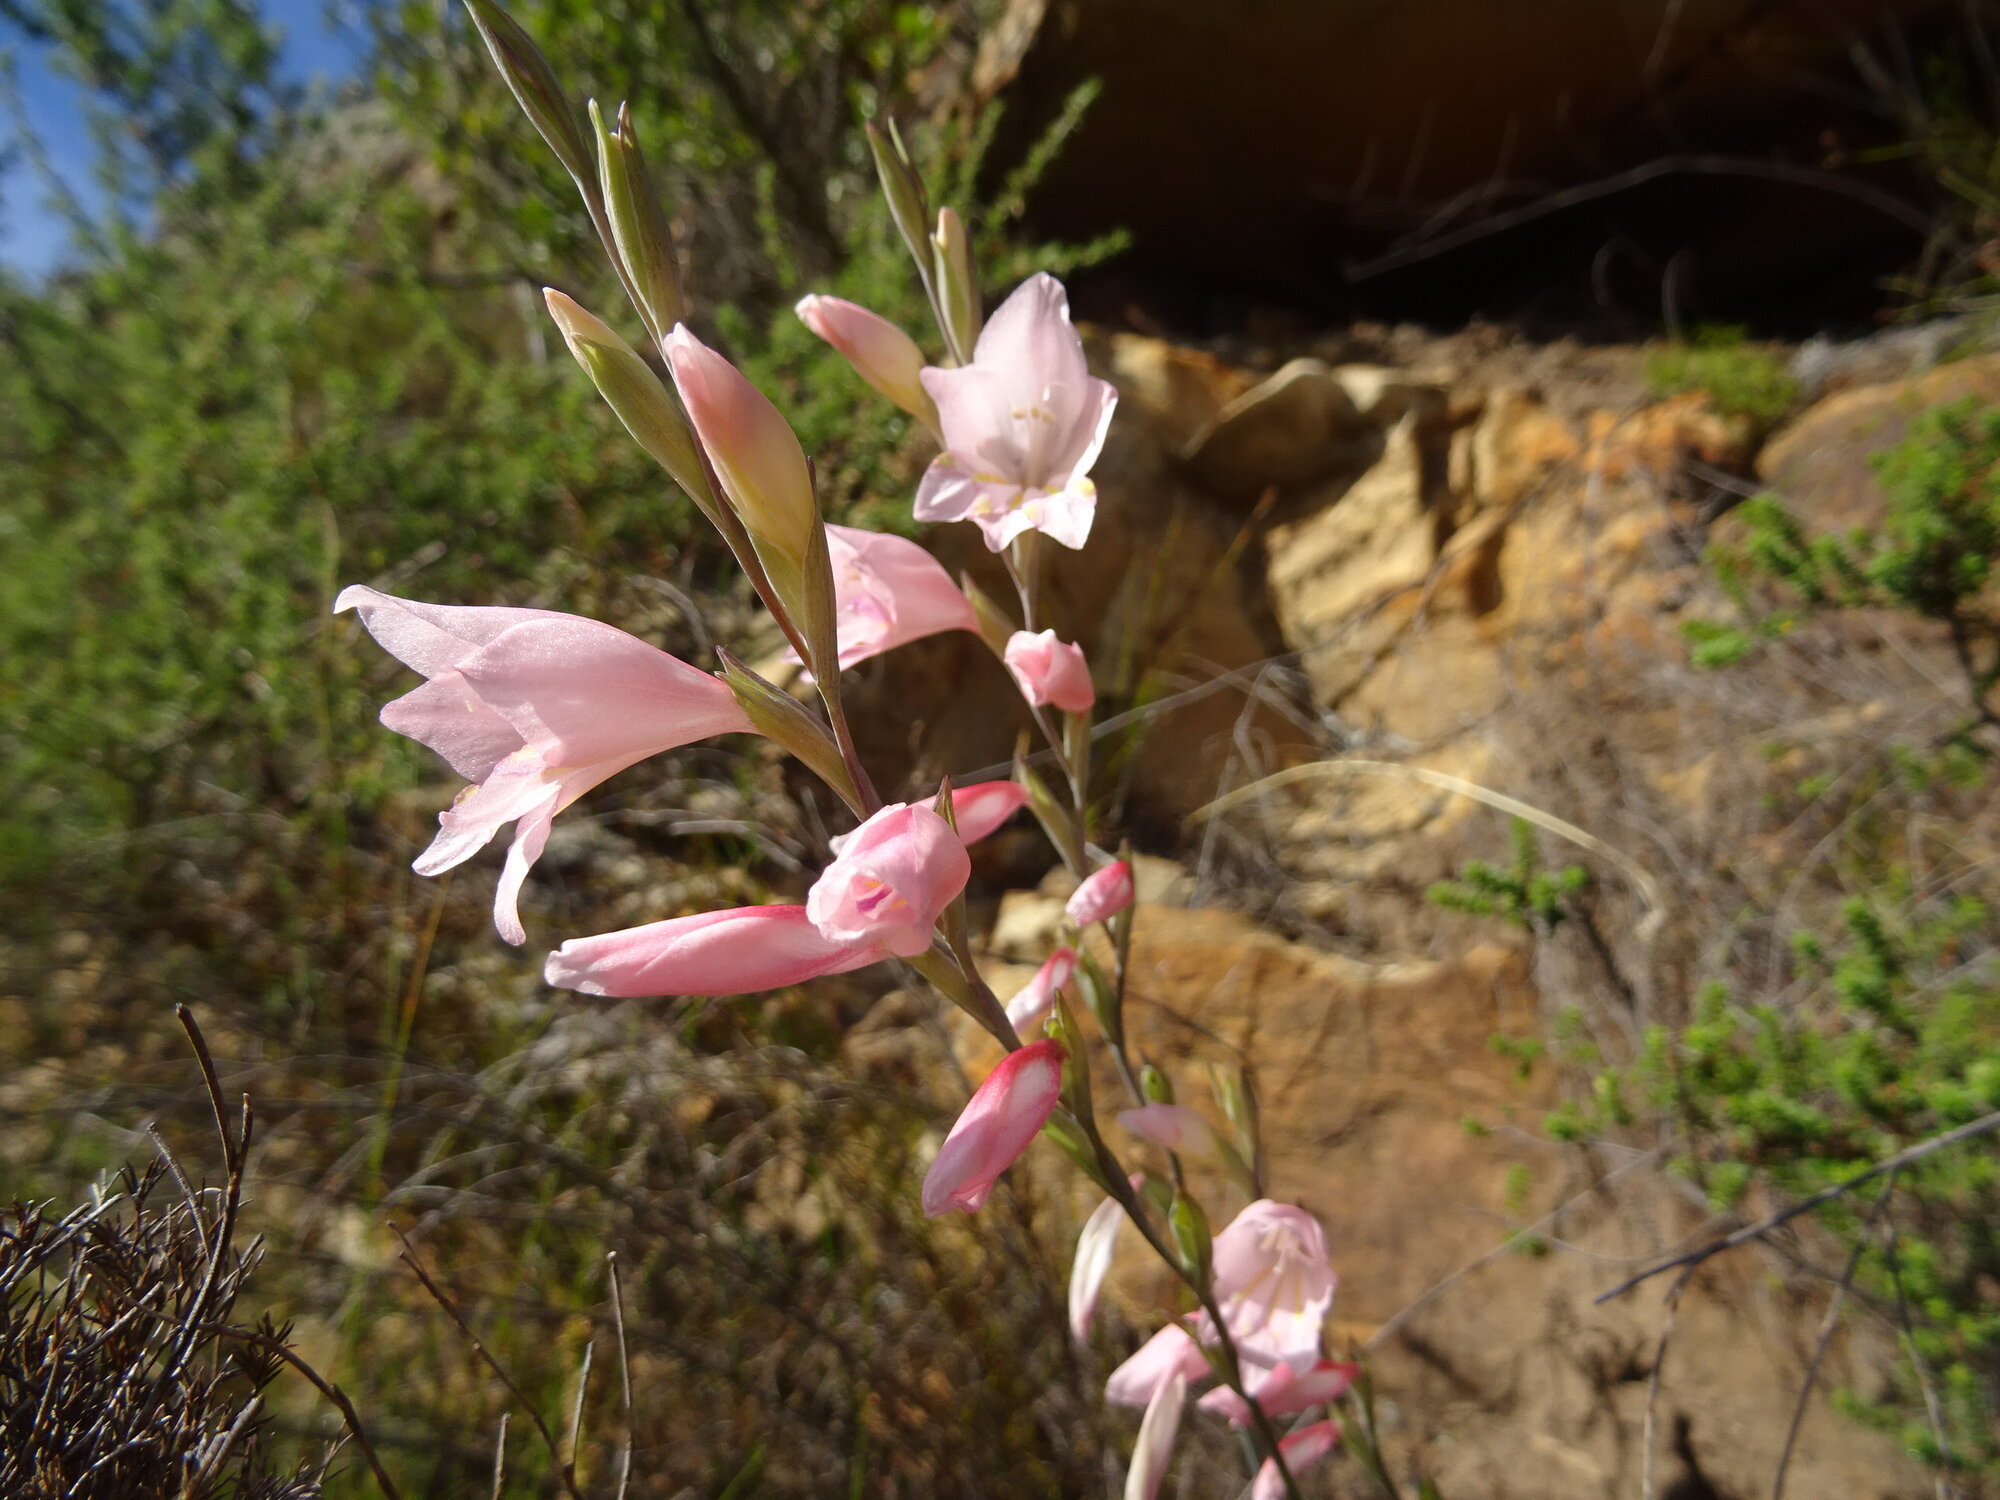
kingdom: Plantae
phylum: Tracheophyta
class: Liliopsida
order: Asparagales
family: Iridaceae
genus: Gladiolus
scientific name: Gladiolus brevifolius
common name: March pypie
